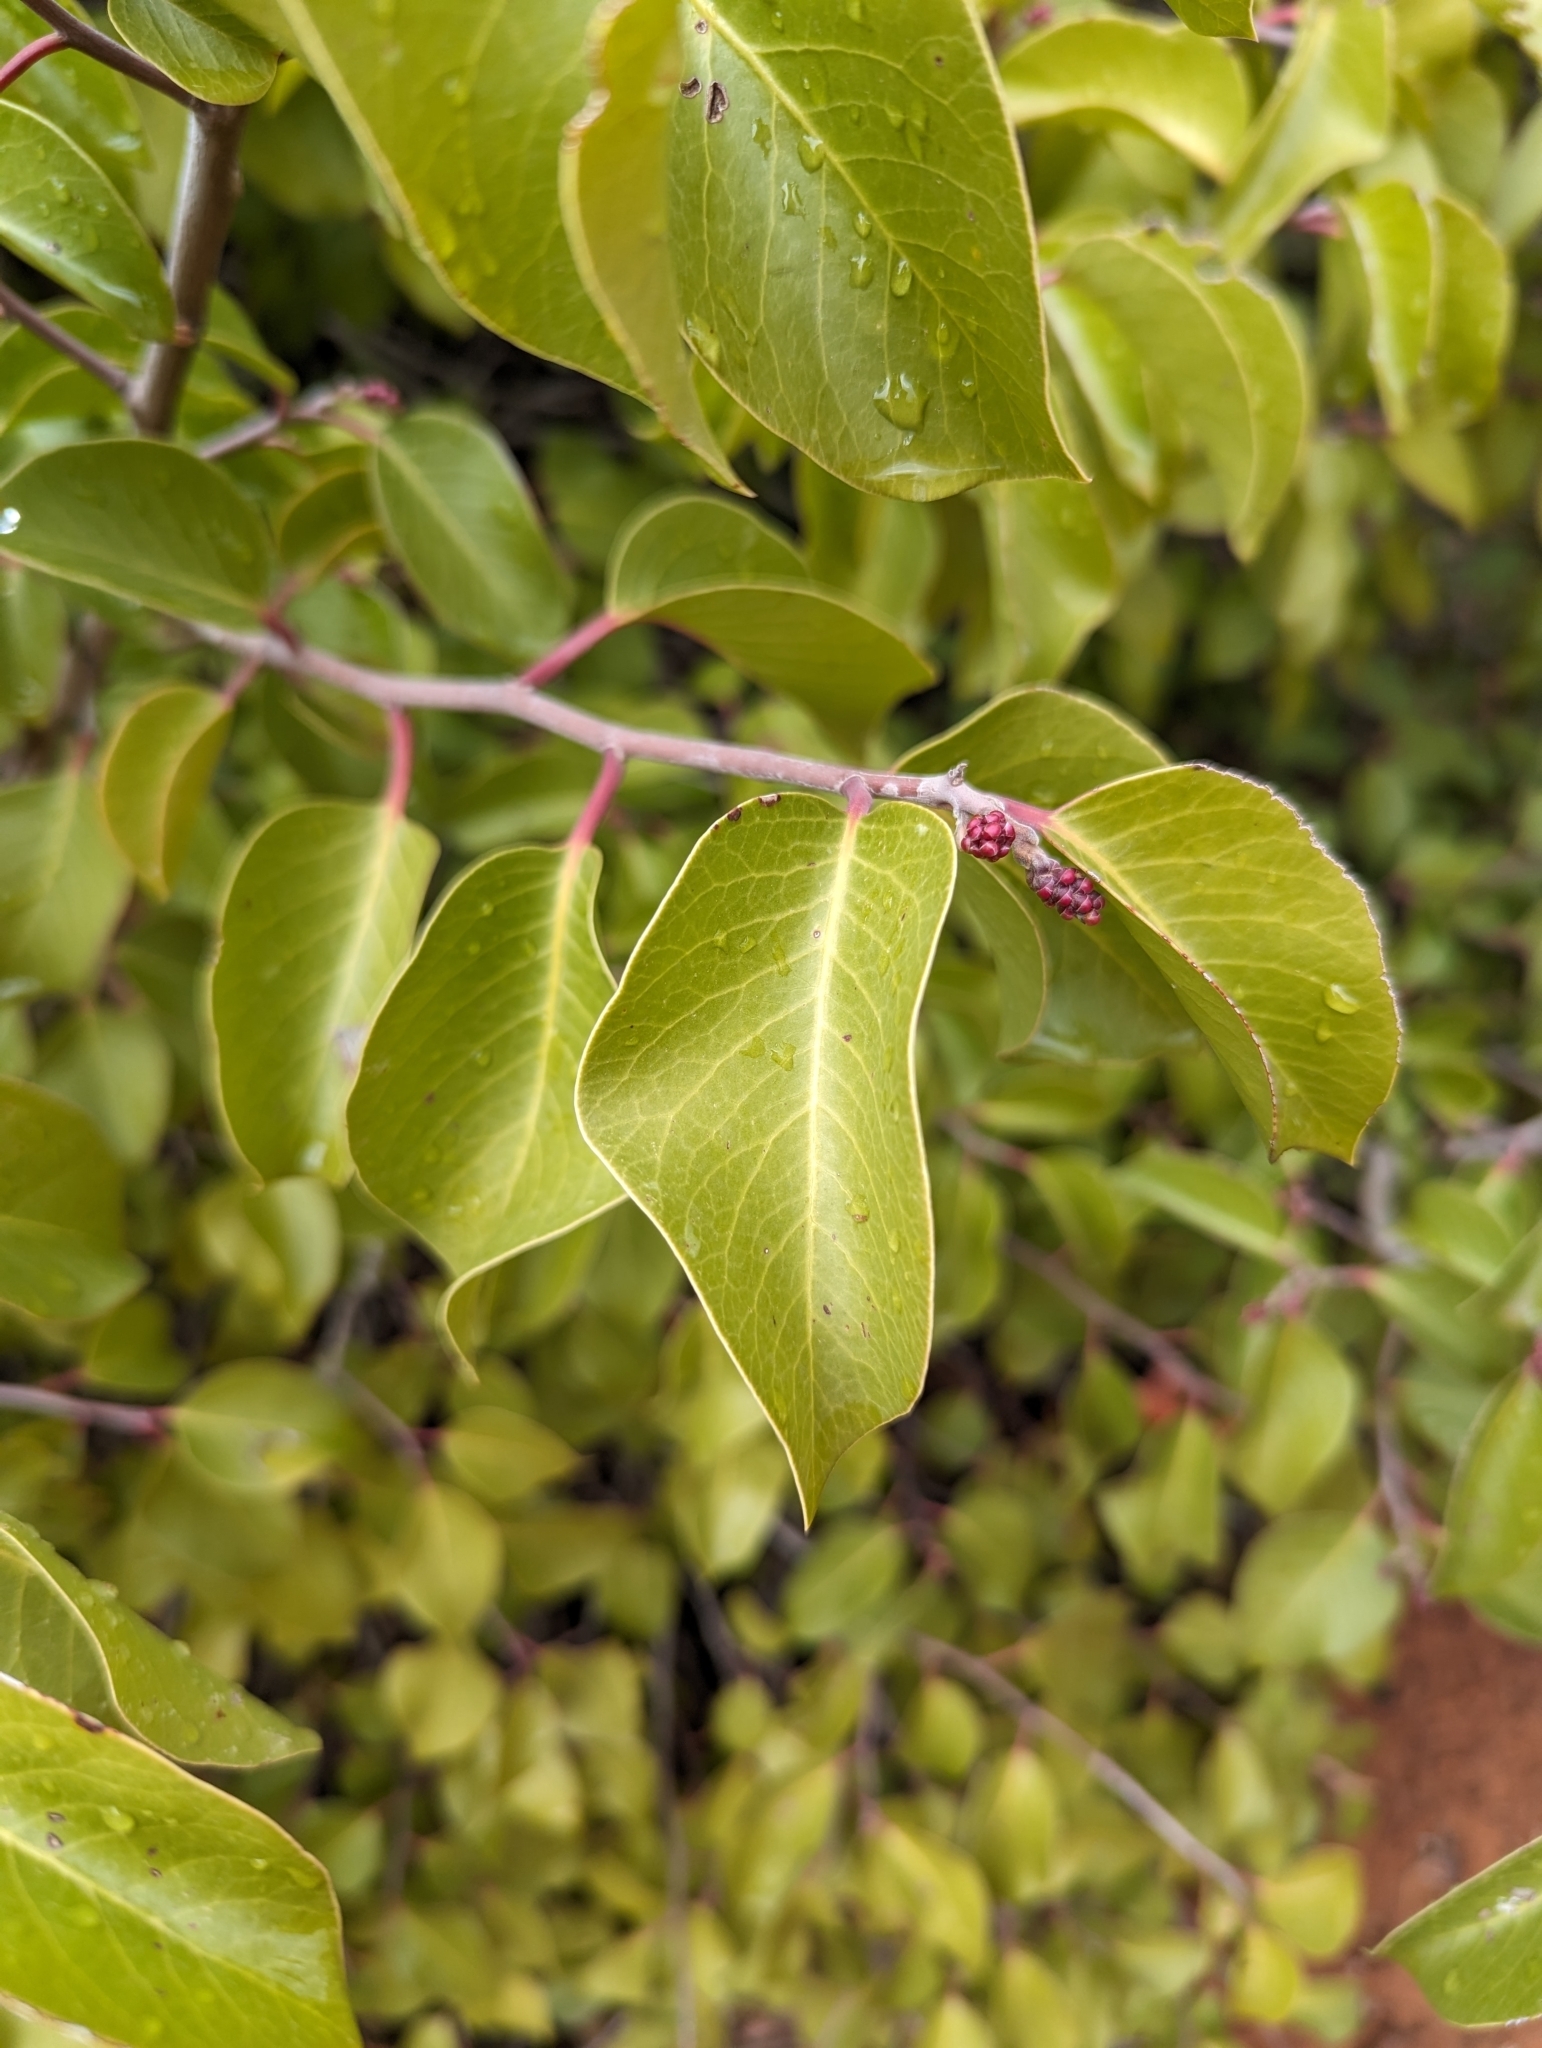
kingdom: Plantae
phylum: Tracheophyta
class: Magnoliopsida
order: Sapindales
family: Anacardiaceae
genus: Rhus
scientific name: Rhus ovata
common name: Sugar sumac
